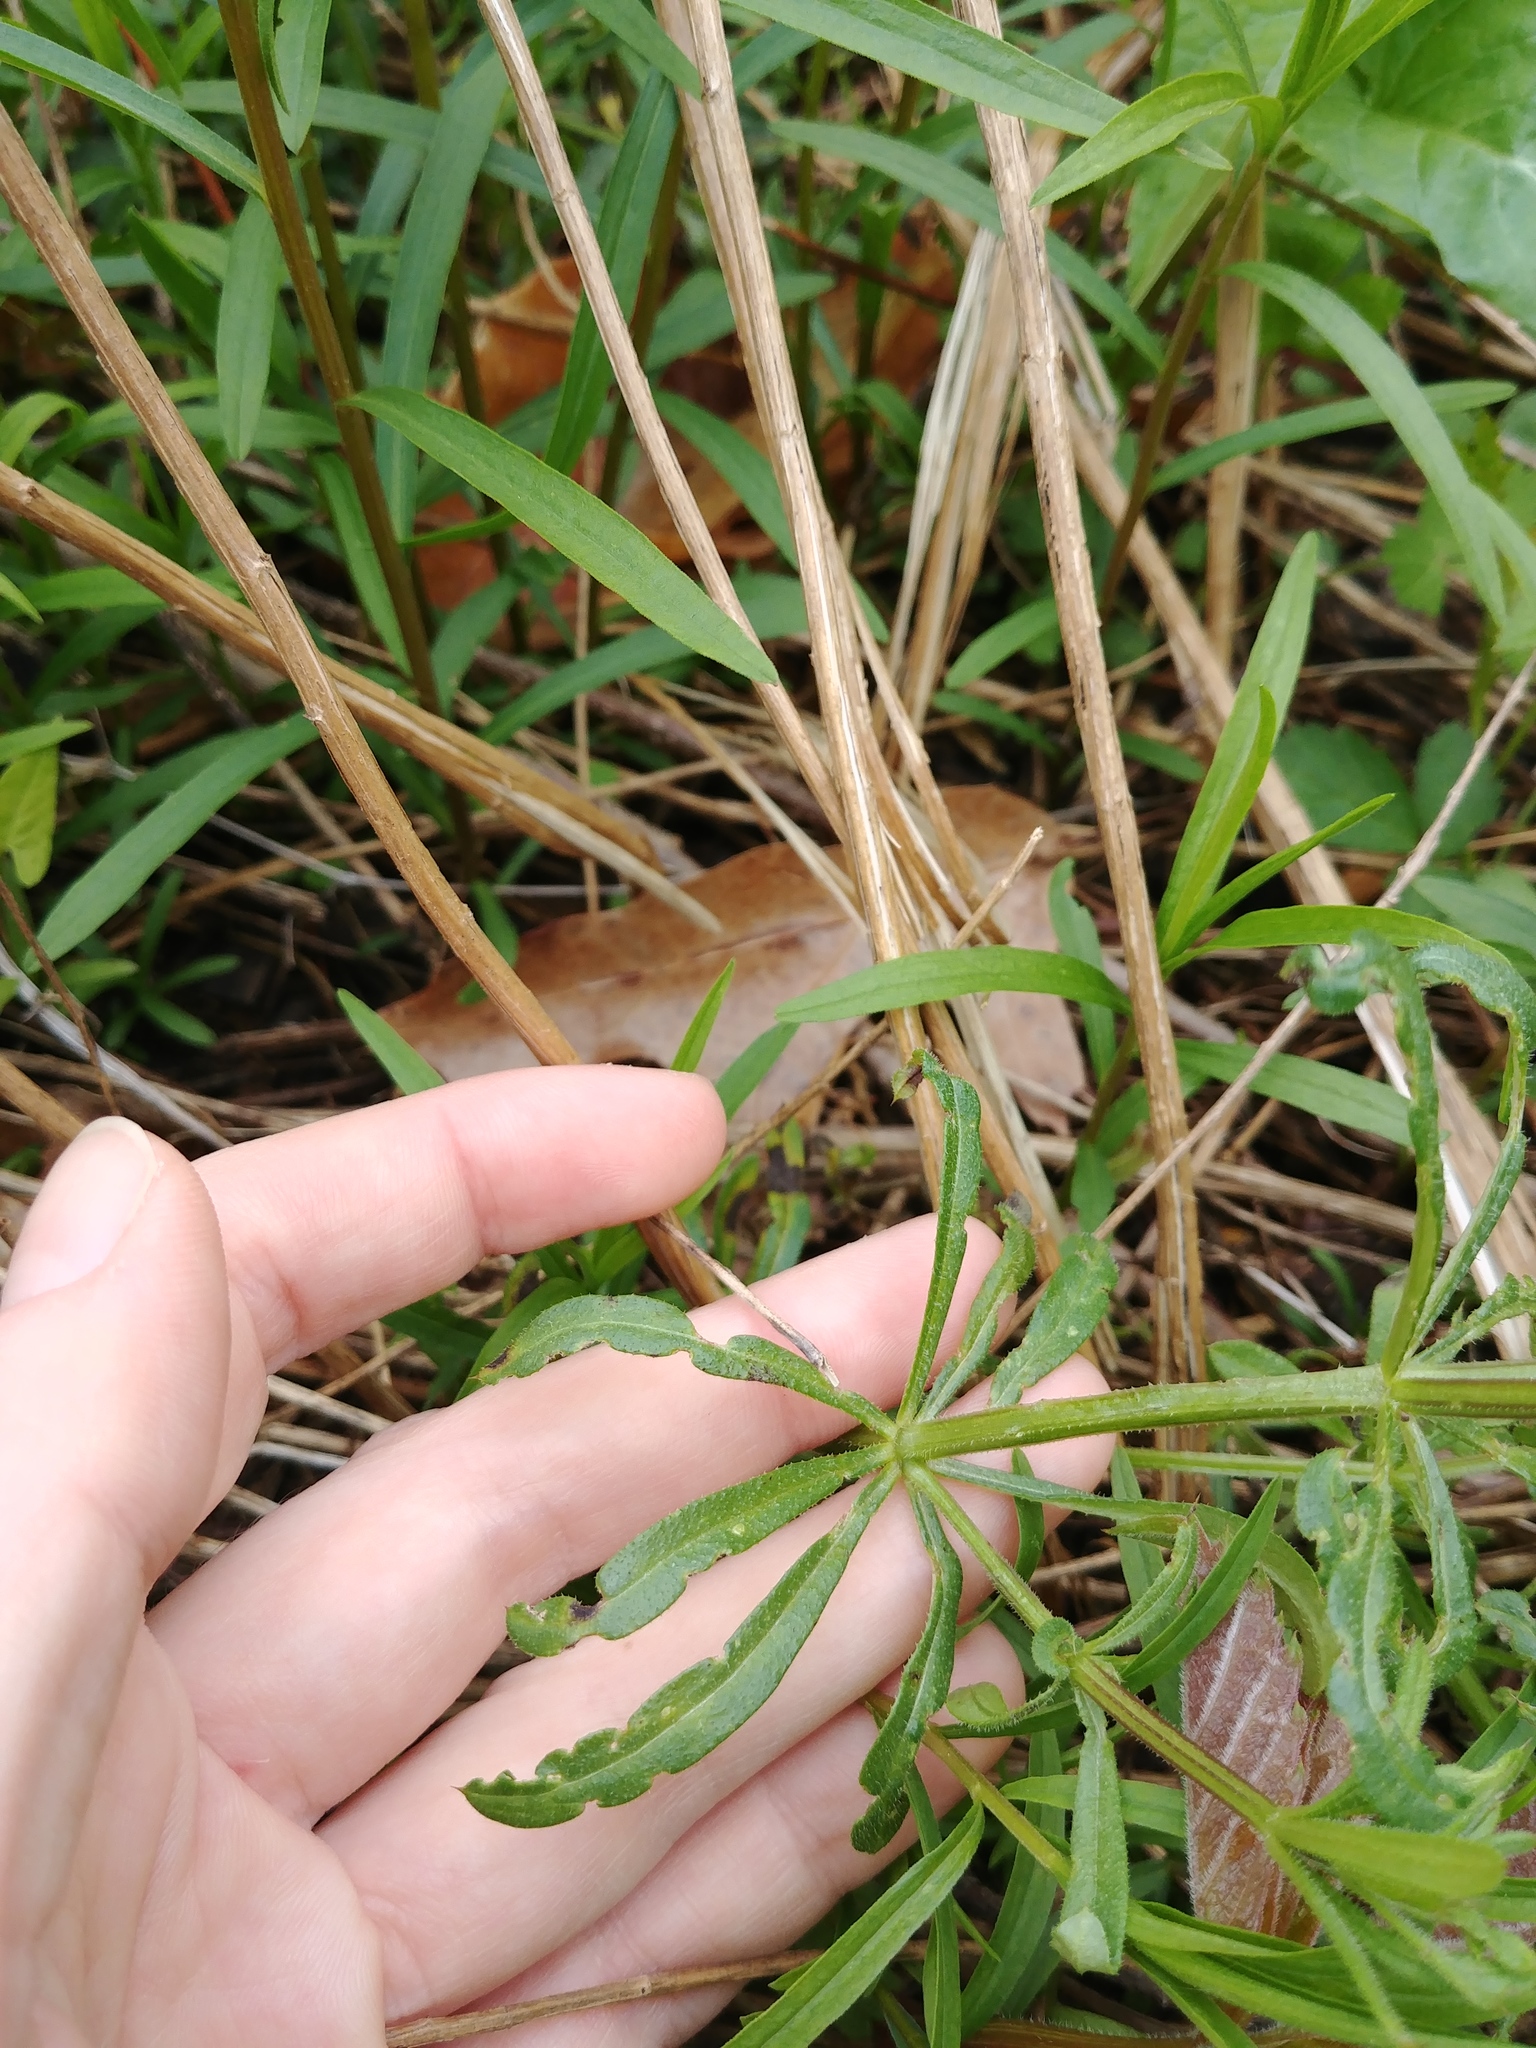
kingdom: Plantae
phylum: Tracheophyta
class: Magnoliopsida
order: Gentianales
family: Rubiaceae
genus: Galium
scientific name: Galium aparine
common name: Cleavers
